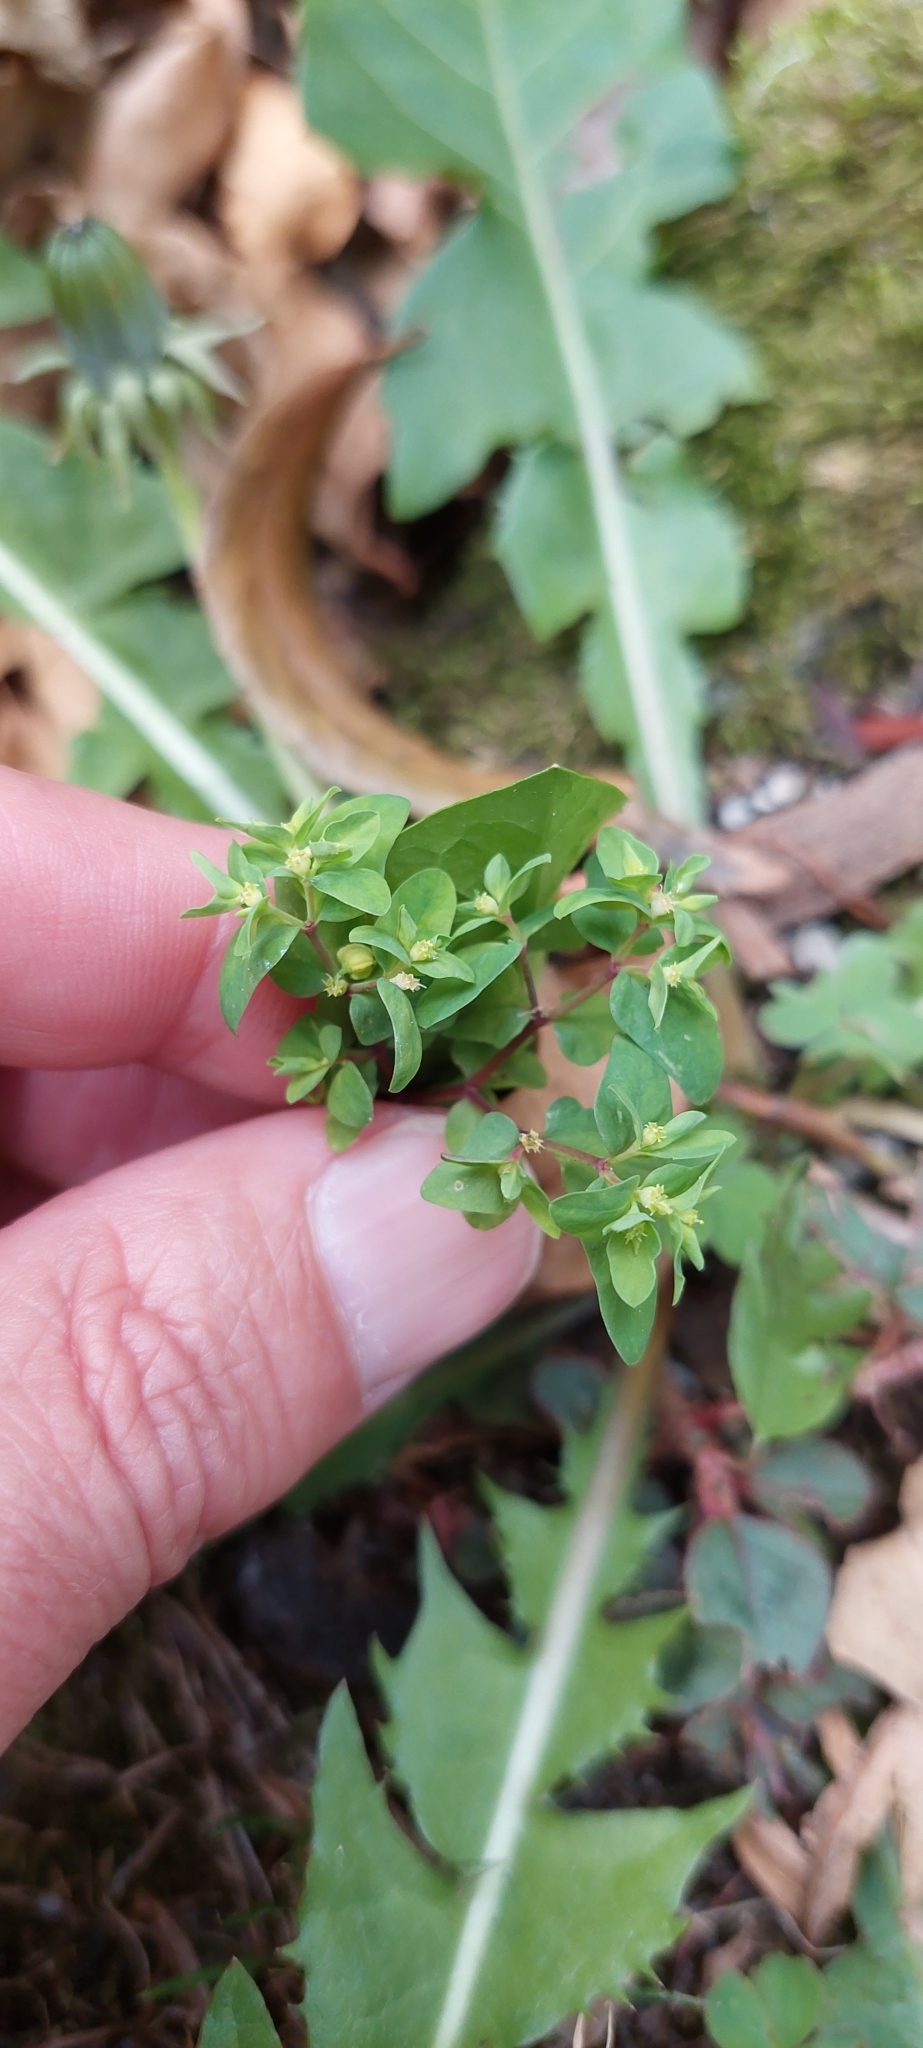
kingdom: Plantae
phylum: Tracheophyta
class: Magnoliopsida
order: Malpighiales
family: Euphorbiaceae
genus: Euphorbia
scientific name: Euphorbia peplus
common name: Petty spurge
